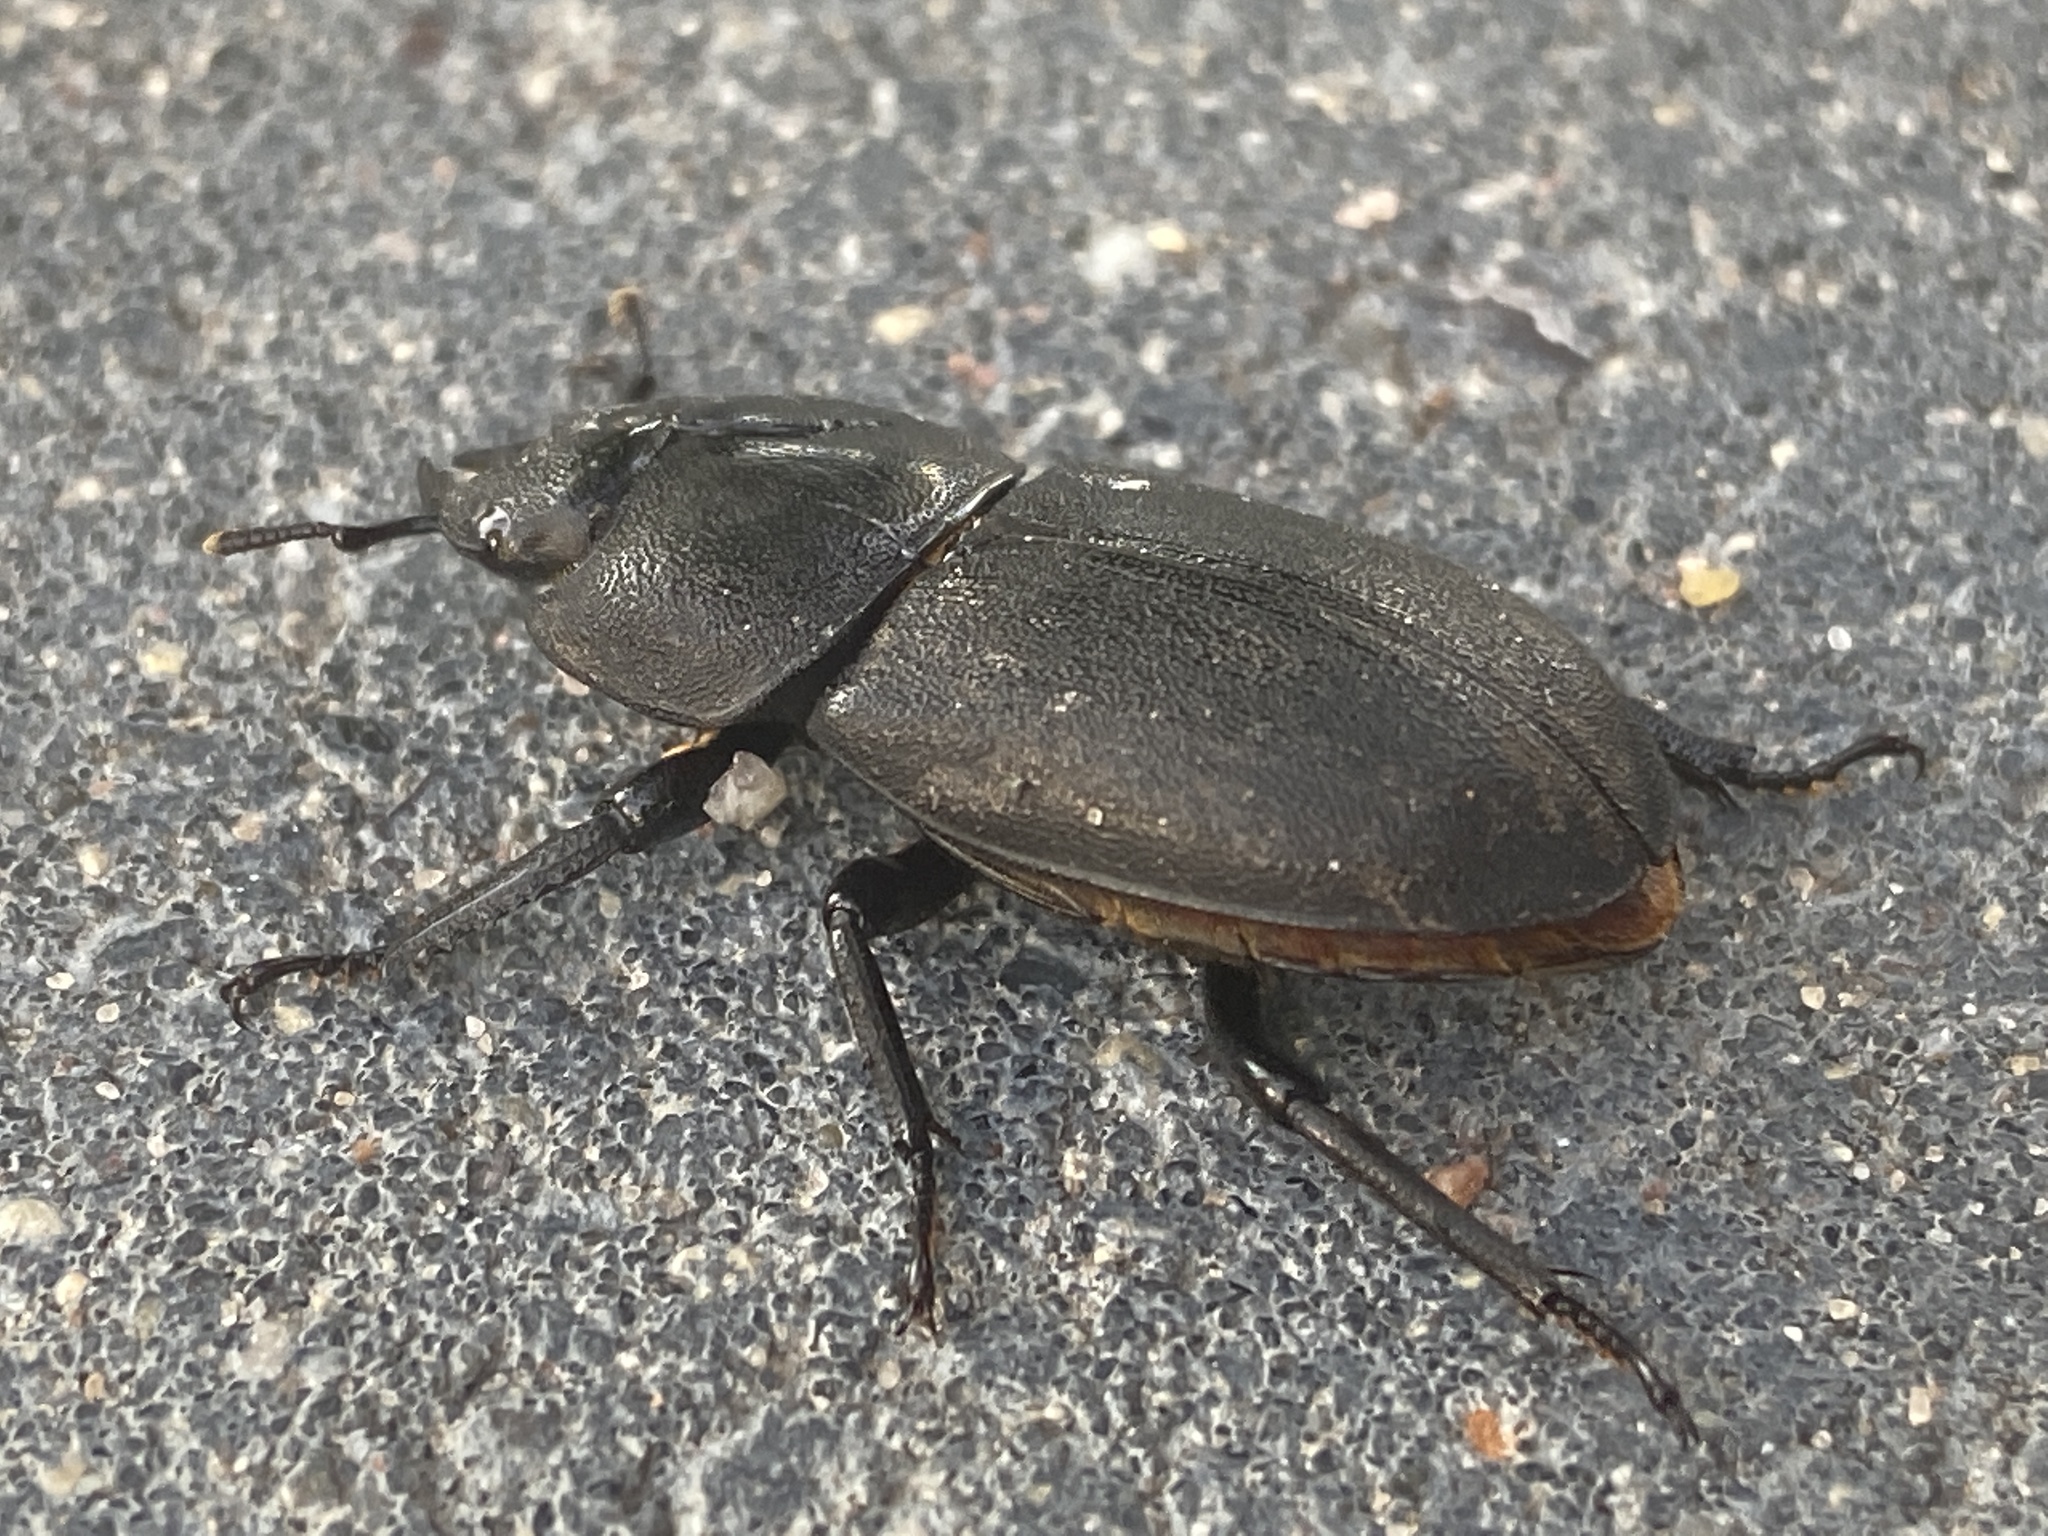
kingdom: Animalia
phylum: Arthropoda
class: Insecta
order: Coleoptera
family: Lucanidae
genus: Dorcus
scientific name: Dorcus parallelipipedus
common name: Lesser stag beetle
